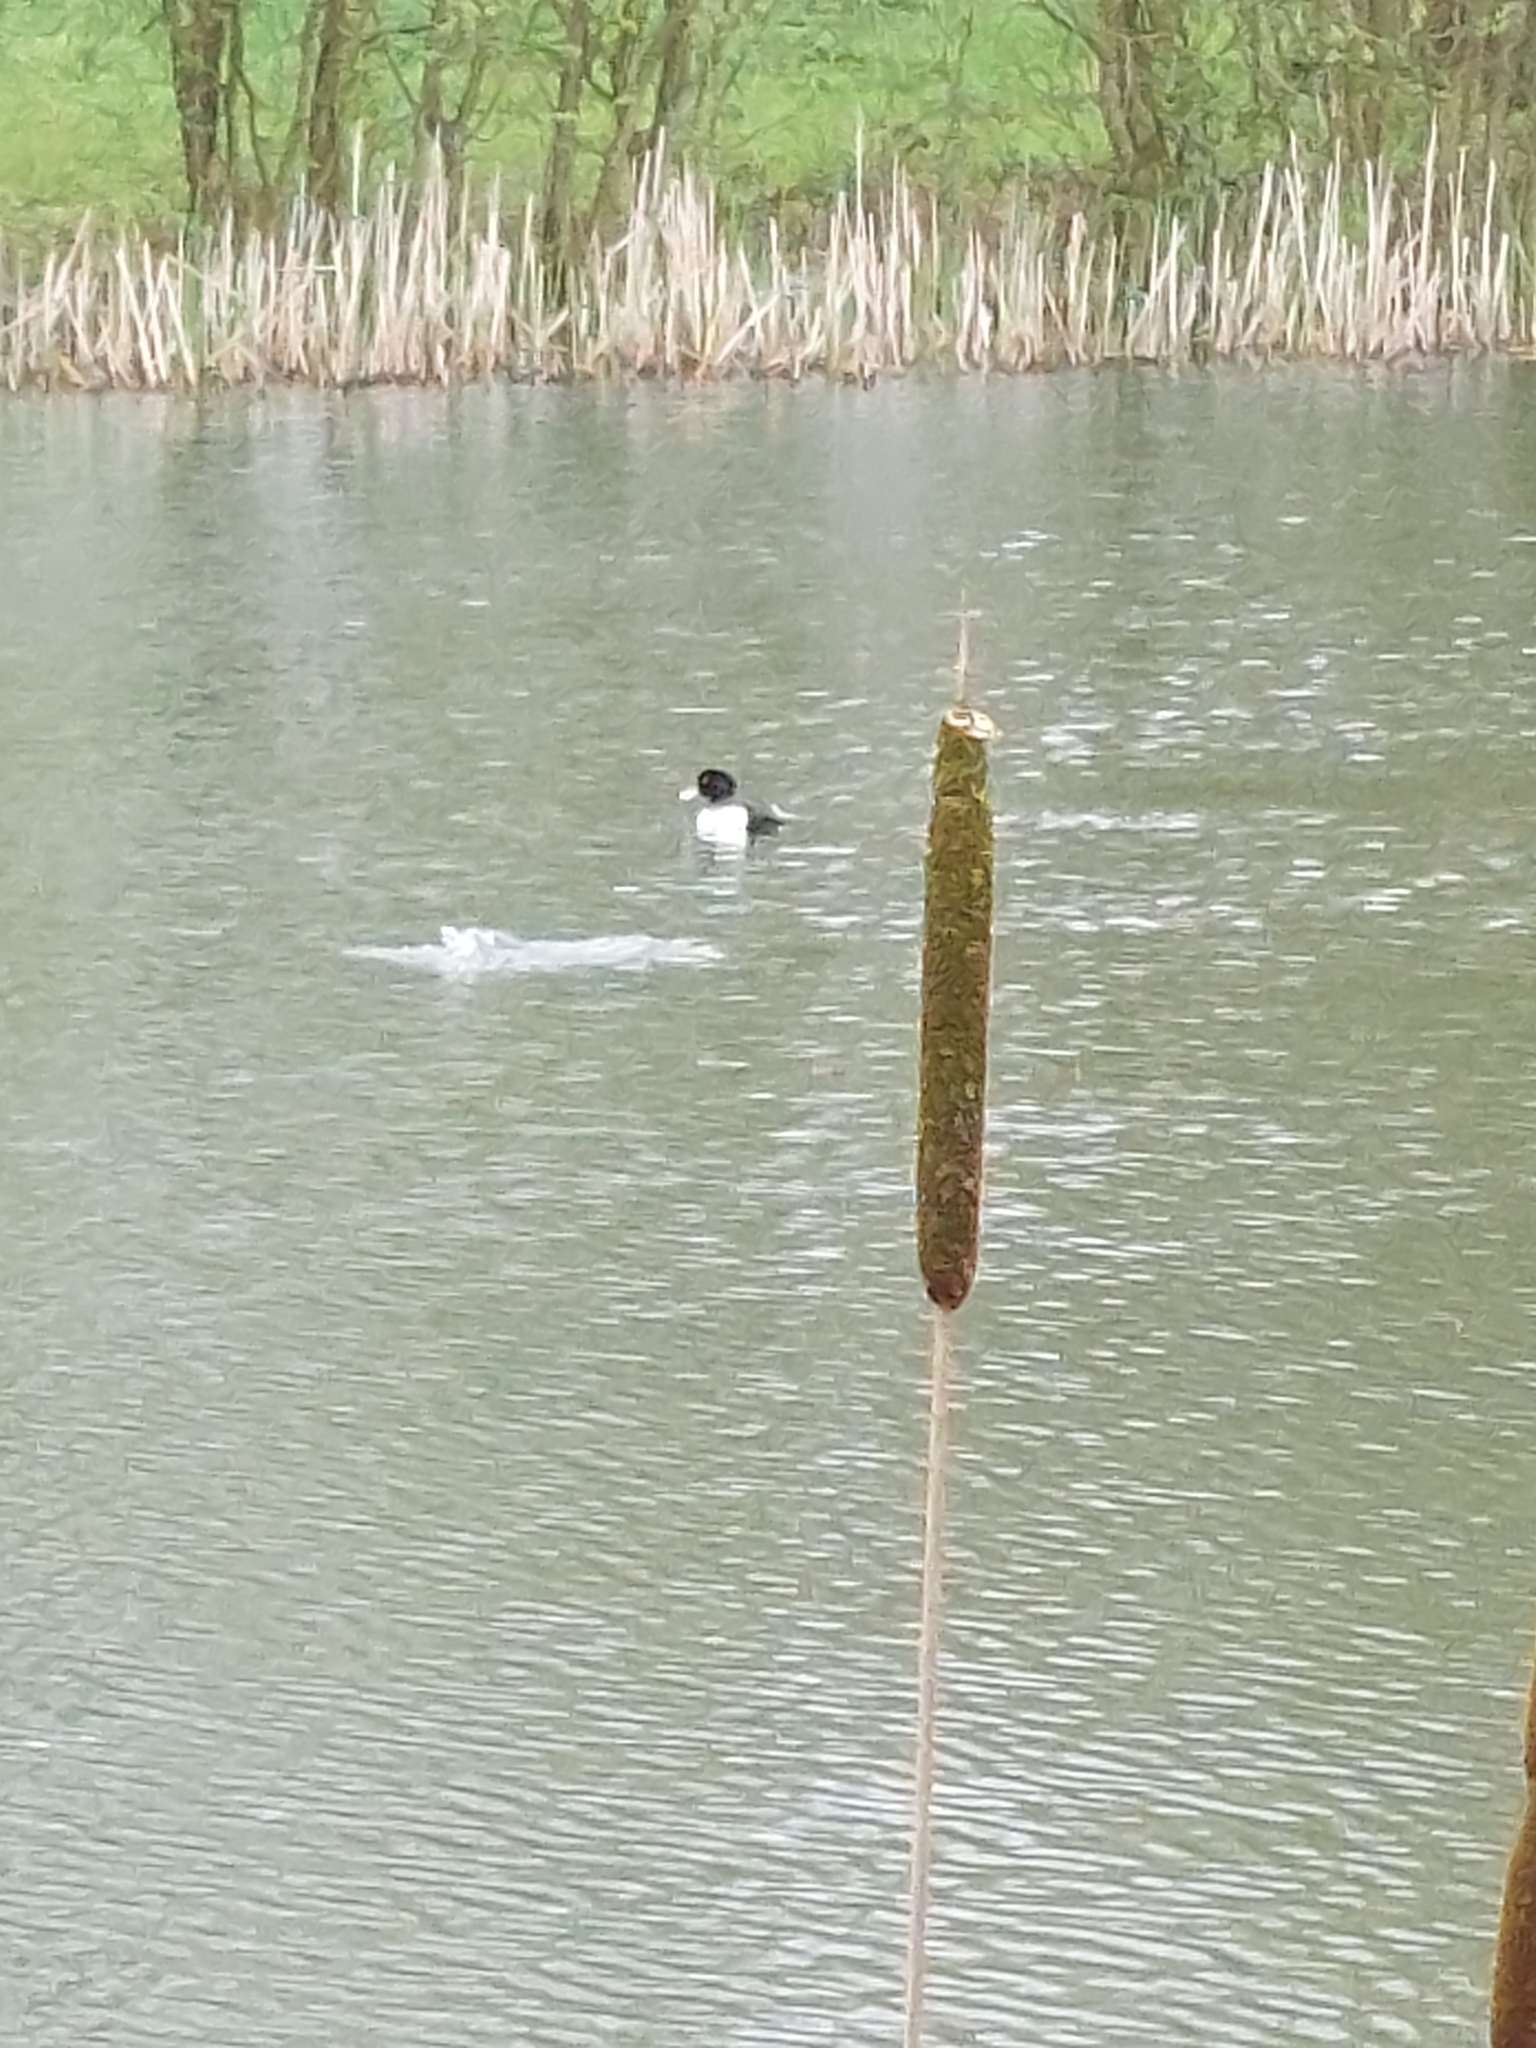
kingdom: Animalia
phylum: Chordata
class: Aves
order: Anseriformes
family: Anatidae
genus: Aythya
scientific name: Aythya fuligula
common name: Tufted duck
